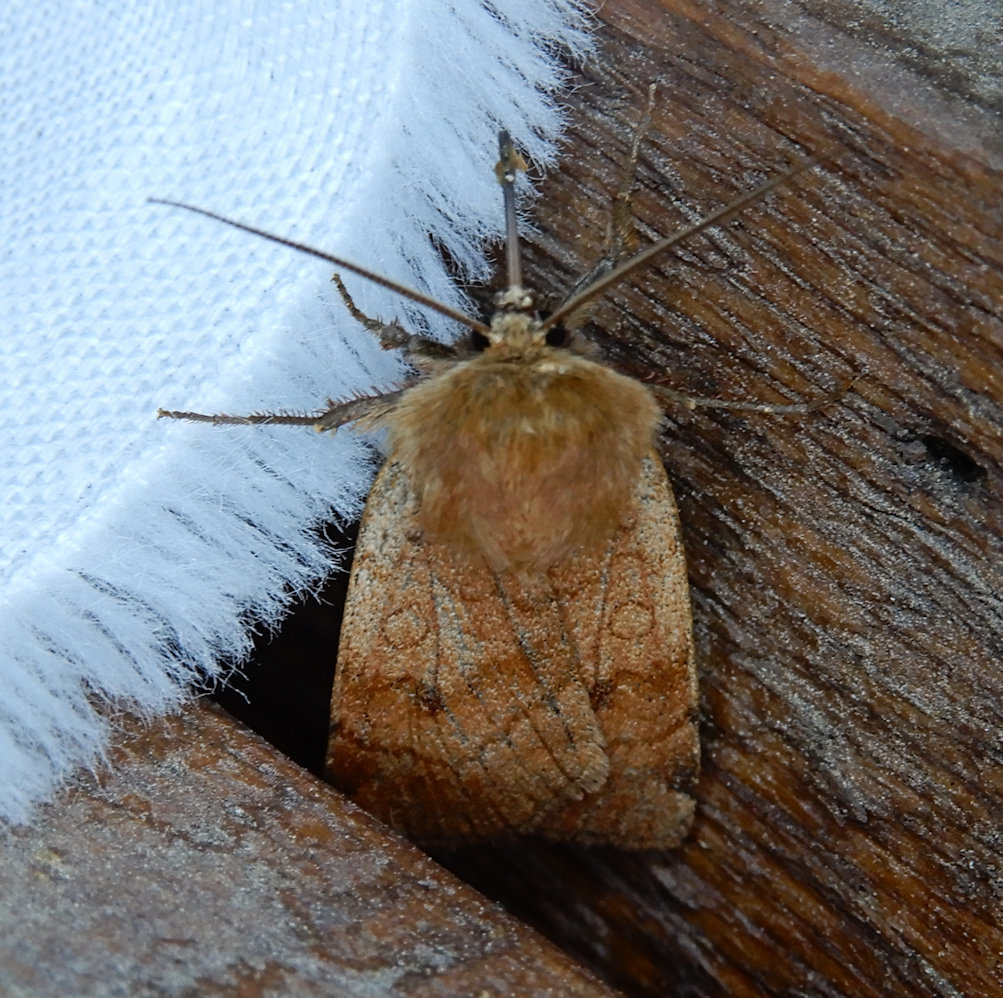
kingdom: Animalia
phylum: Arthropoda
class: Insecta
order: Lepidoptera
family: Noctuidae
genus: Paradiarsia
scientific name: Paradiarsia littoralis
